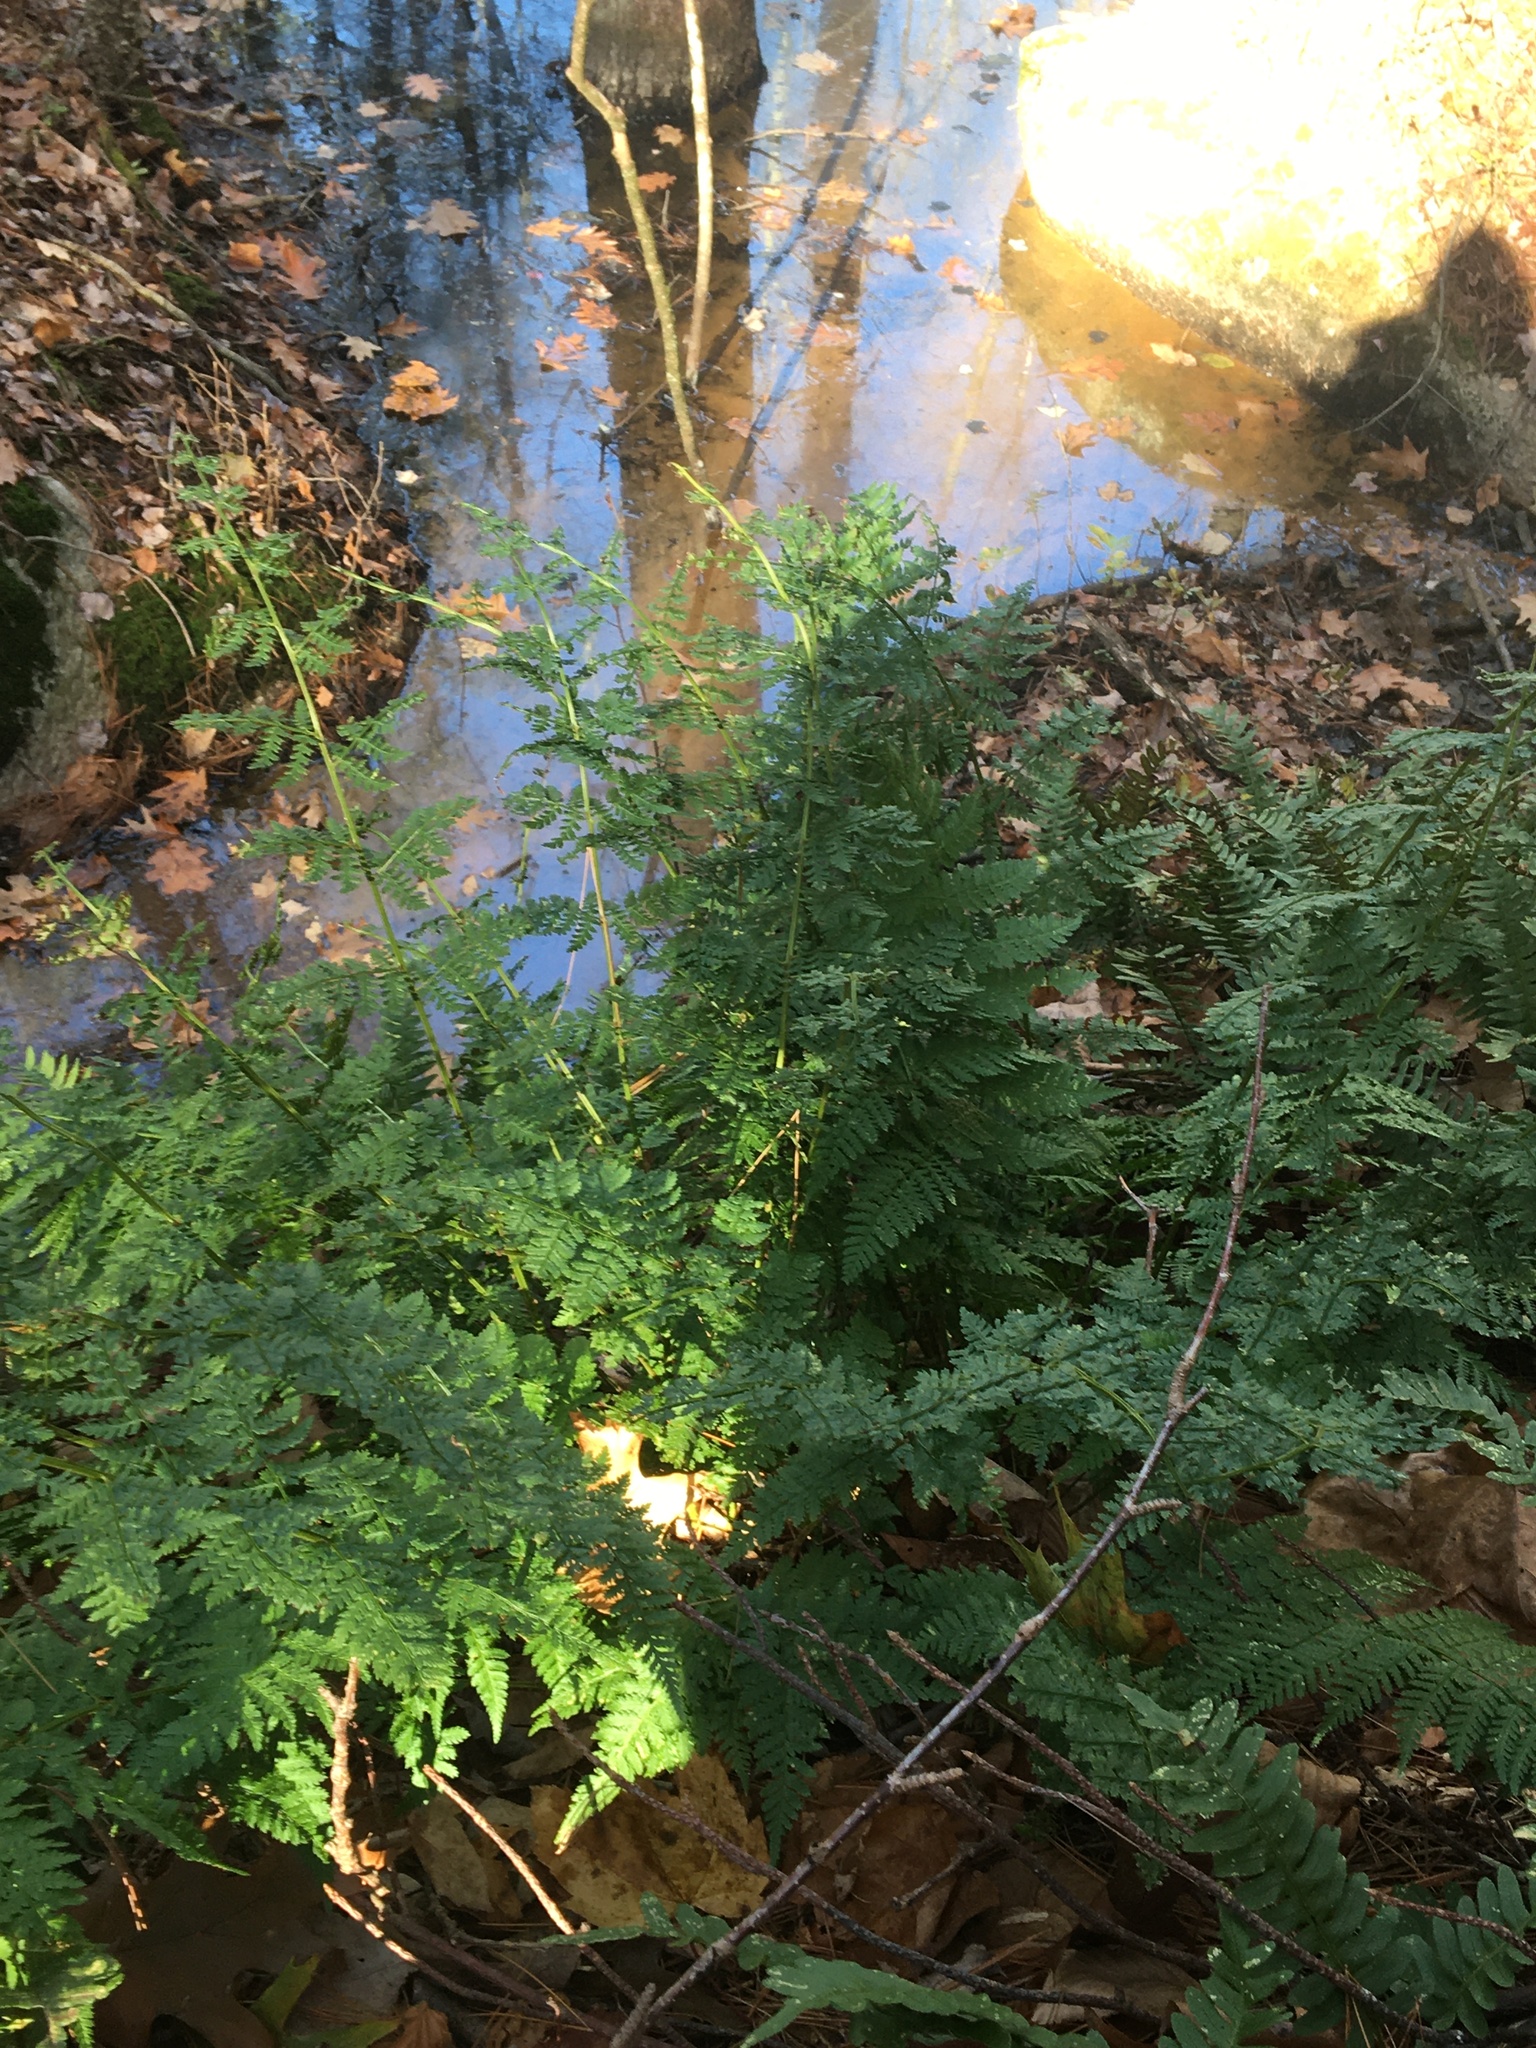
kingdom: Plantae
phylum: Tracheophyta
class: Polypodiopsida
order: Polypodiales
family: Dryopteridaceae
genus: Dryopteris
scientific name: Dryopteris intermedia
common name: Evergreen wood fern
